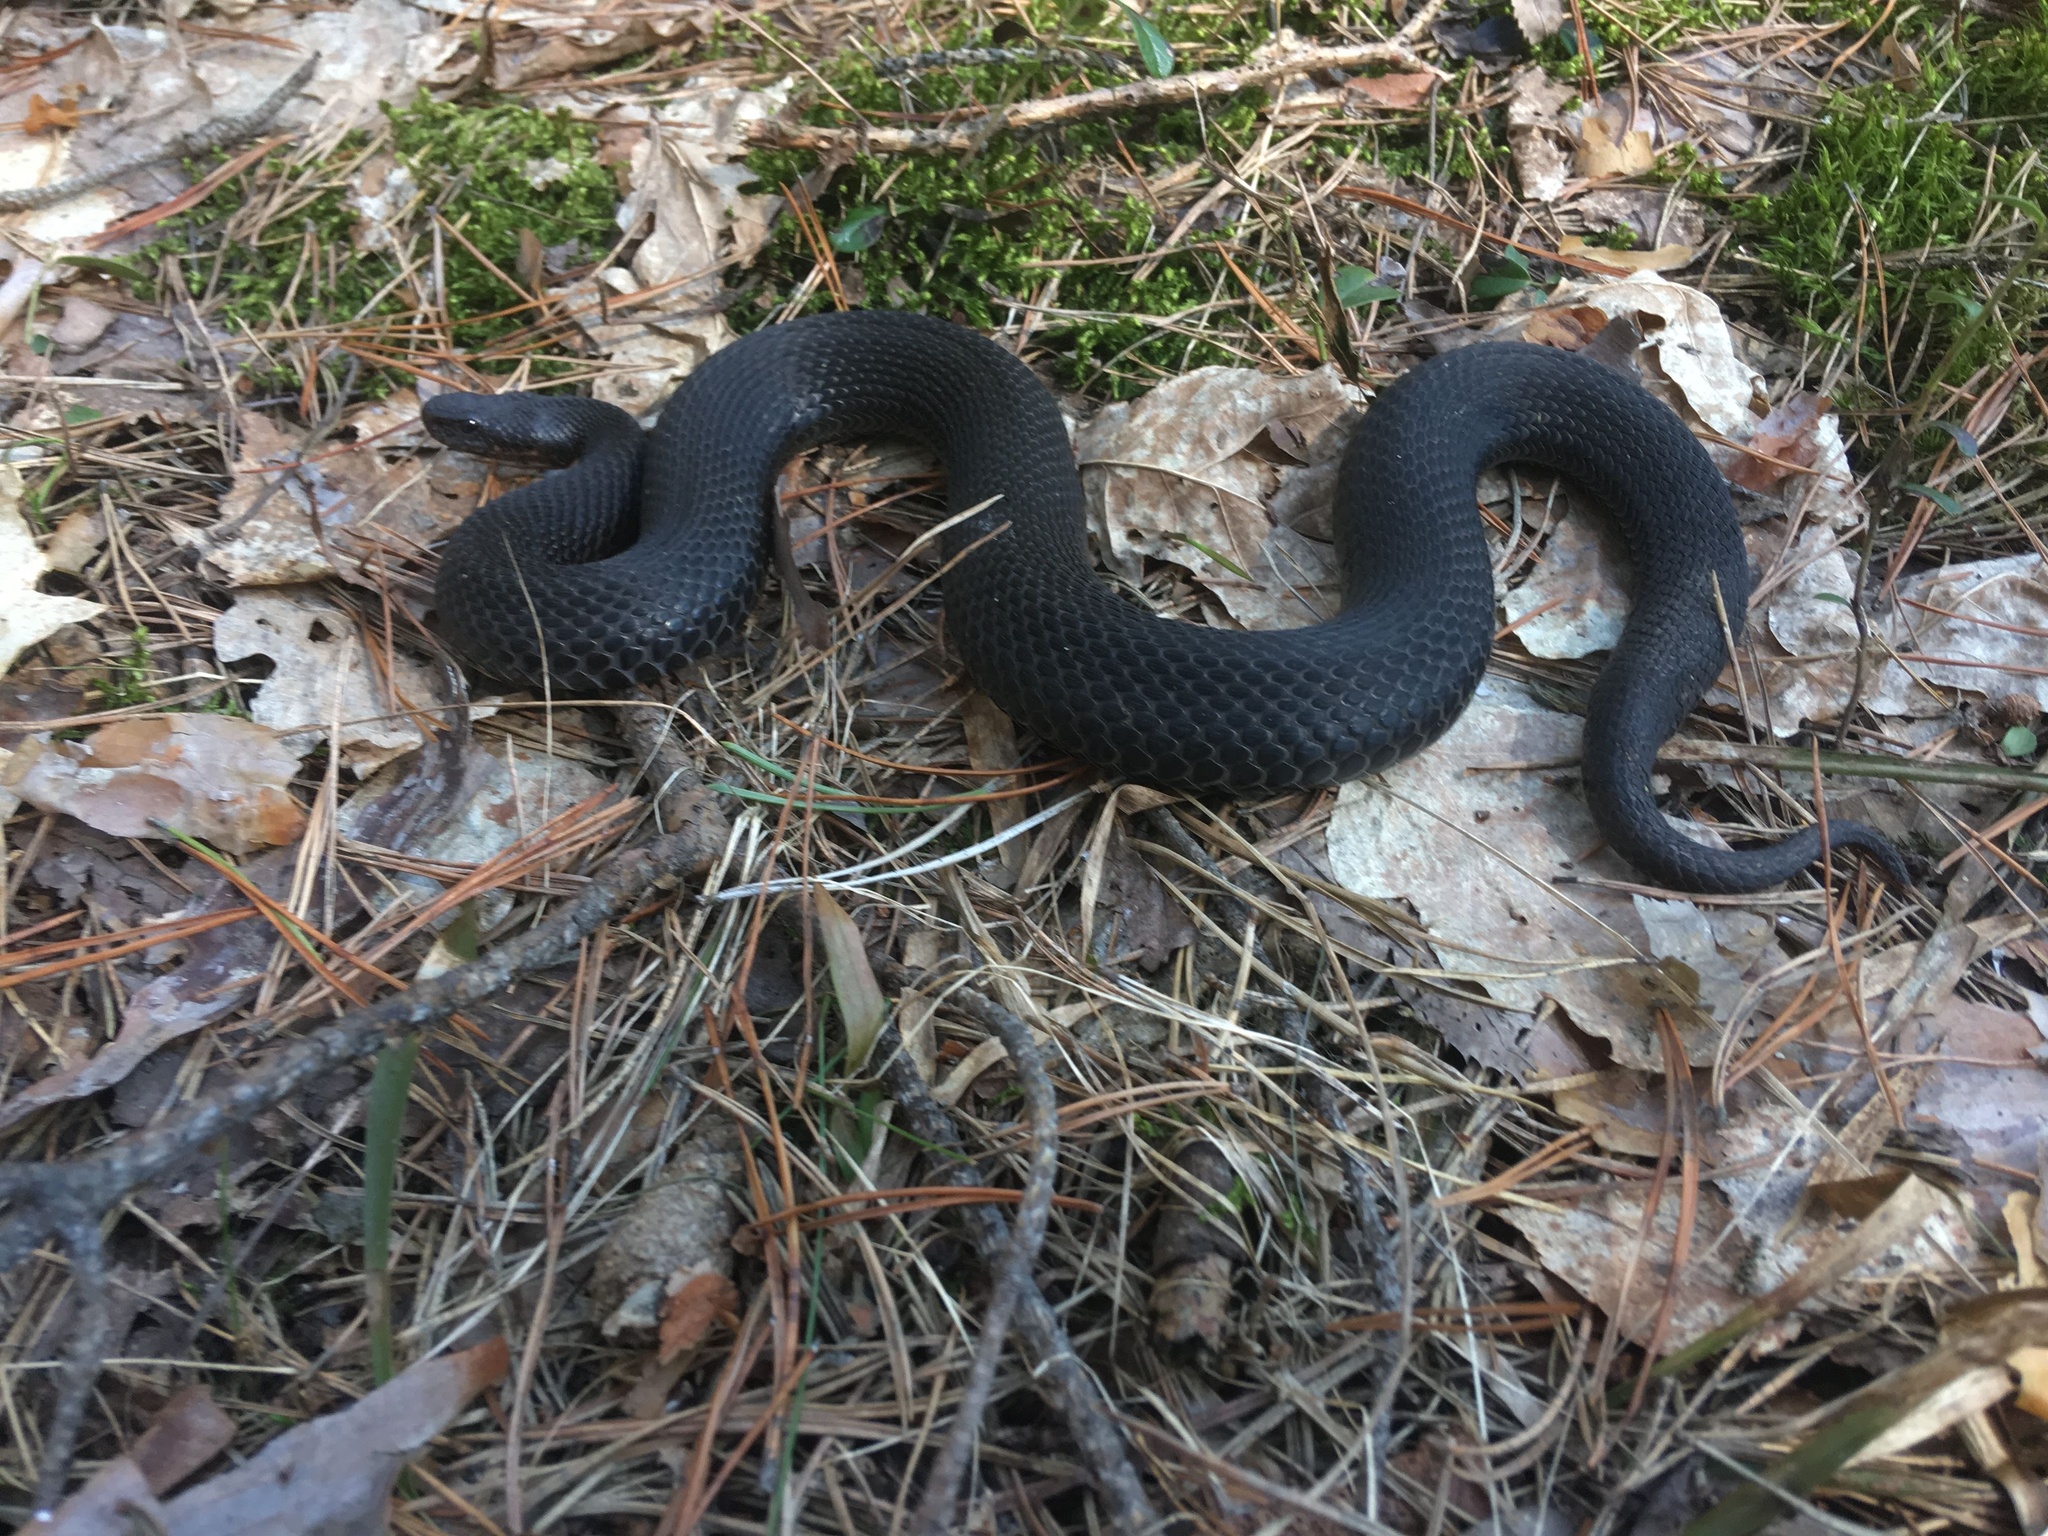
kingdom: Animalia
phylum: Chordata
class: Squamata
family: Viperidae
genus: Vipera
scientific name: Vipera berus
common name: Adder
